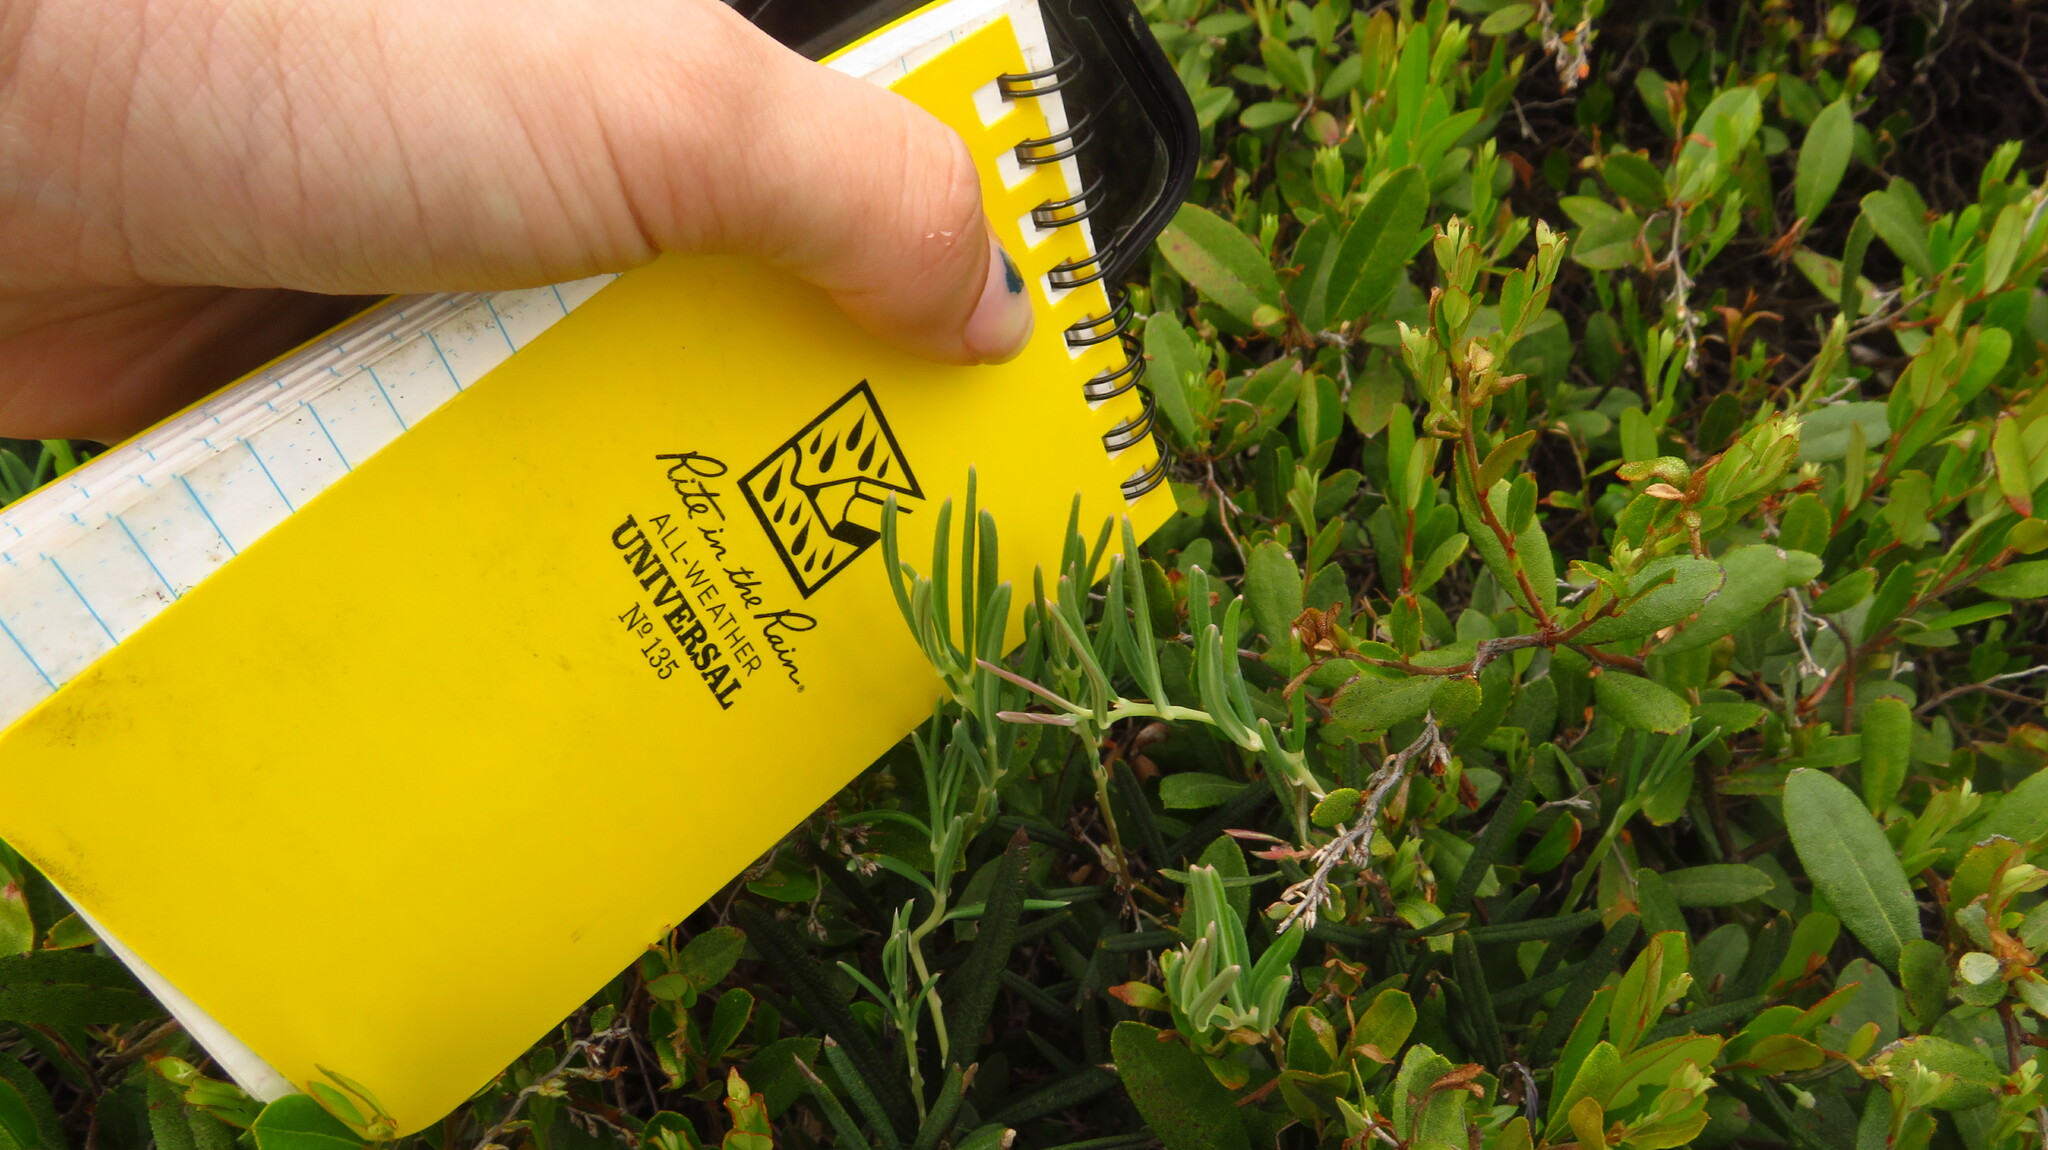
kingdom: Plantae
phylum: Tracheophyta
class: Magnoliopsida
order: Ericales
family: Ericaceae
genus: Andromeda
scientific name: Andromeda polifolia
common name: Bog-rosemary
